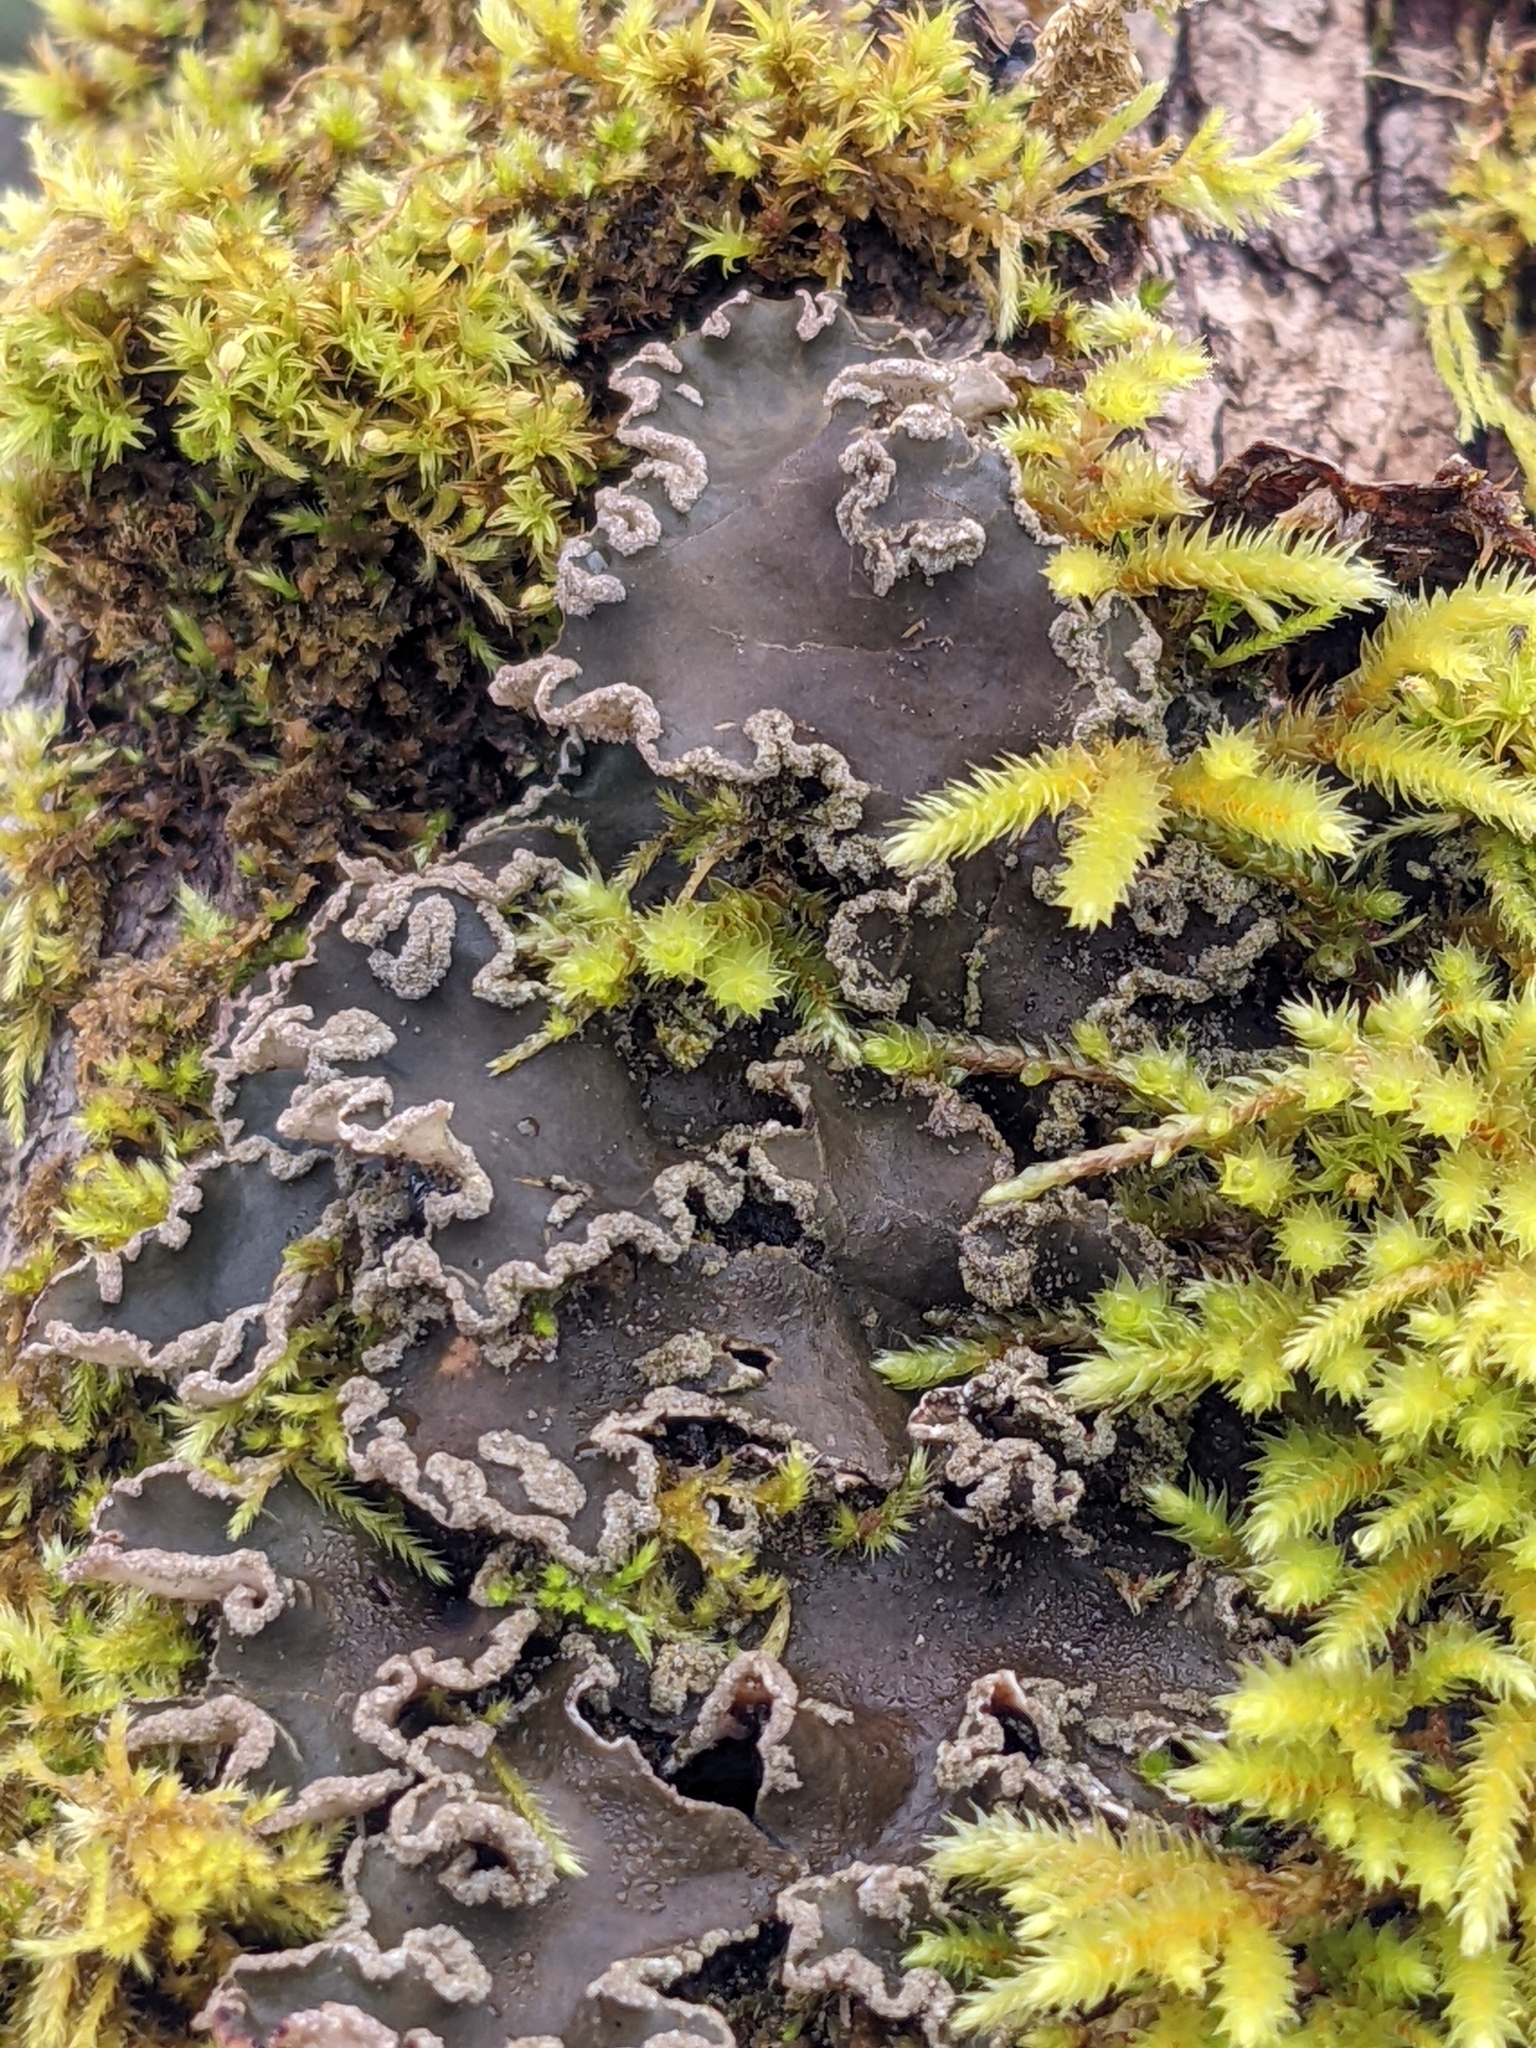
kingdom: Fungi
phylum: Ascomycota
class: Lecanoromycetes
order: Peltigerales
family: Peltigeraceae
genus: Peltigera
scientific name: Peltigera collina
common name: Gritty tree pelt lichen
